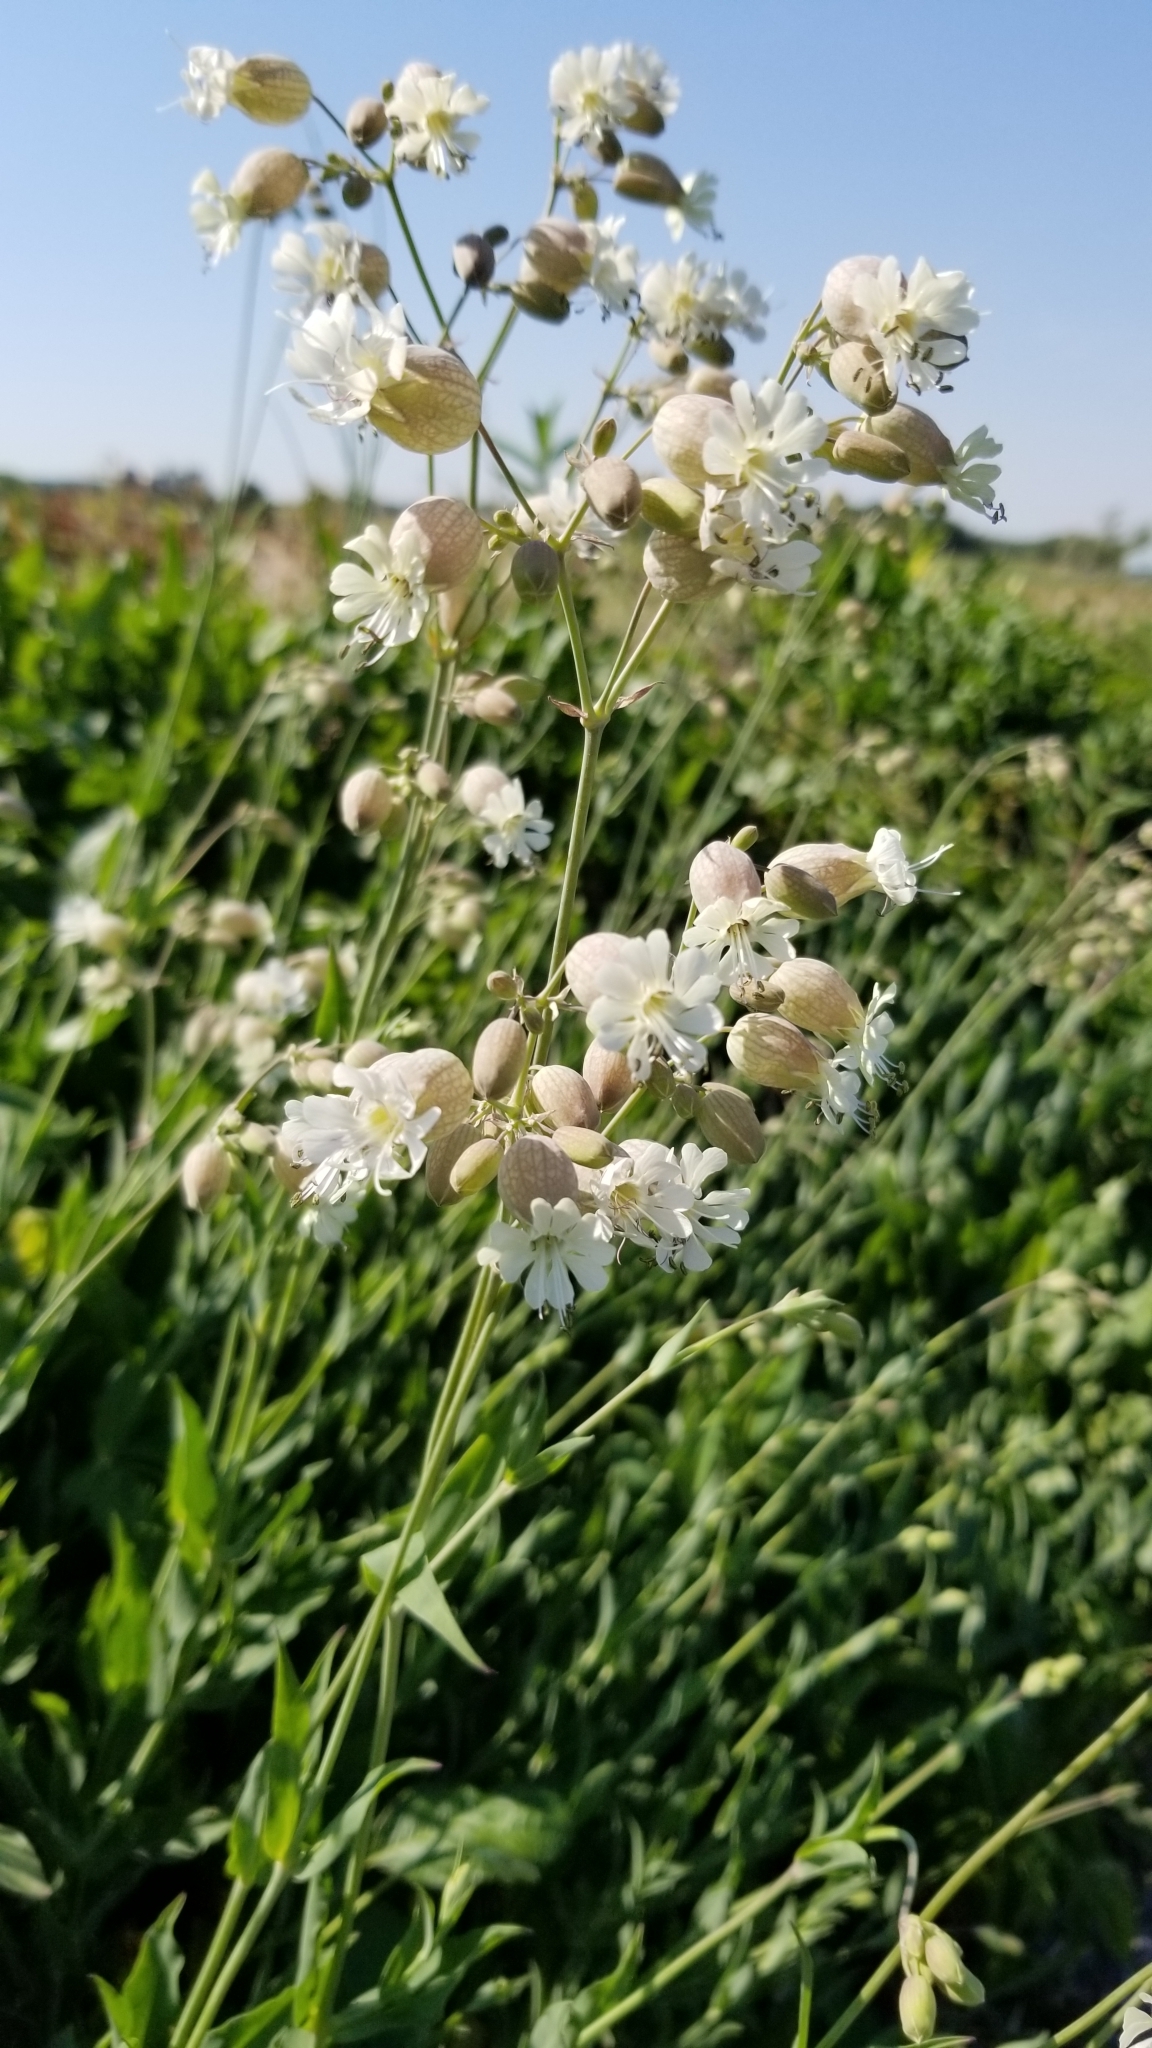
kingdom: Plantae
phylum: Tracheophyta
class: Magnoliopsida
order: Caryophyllales
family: Caryophyllaceae
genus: Silene
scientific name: Silene vulgaris
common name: Bladder campion
